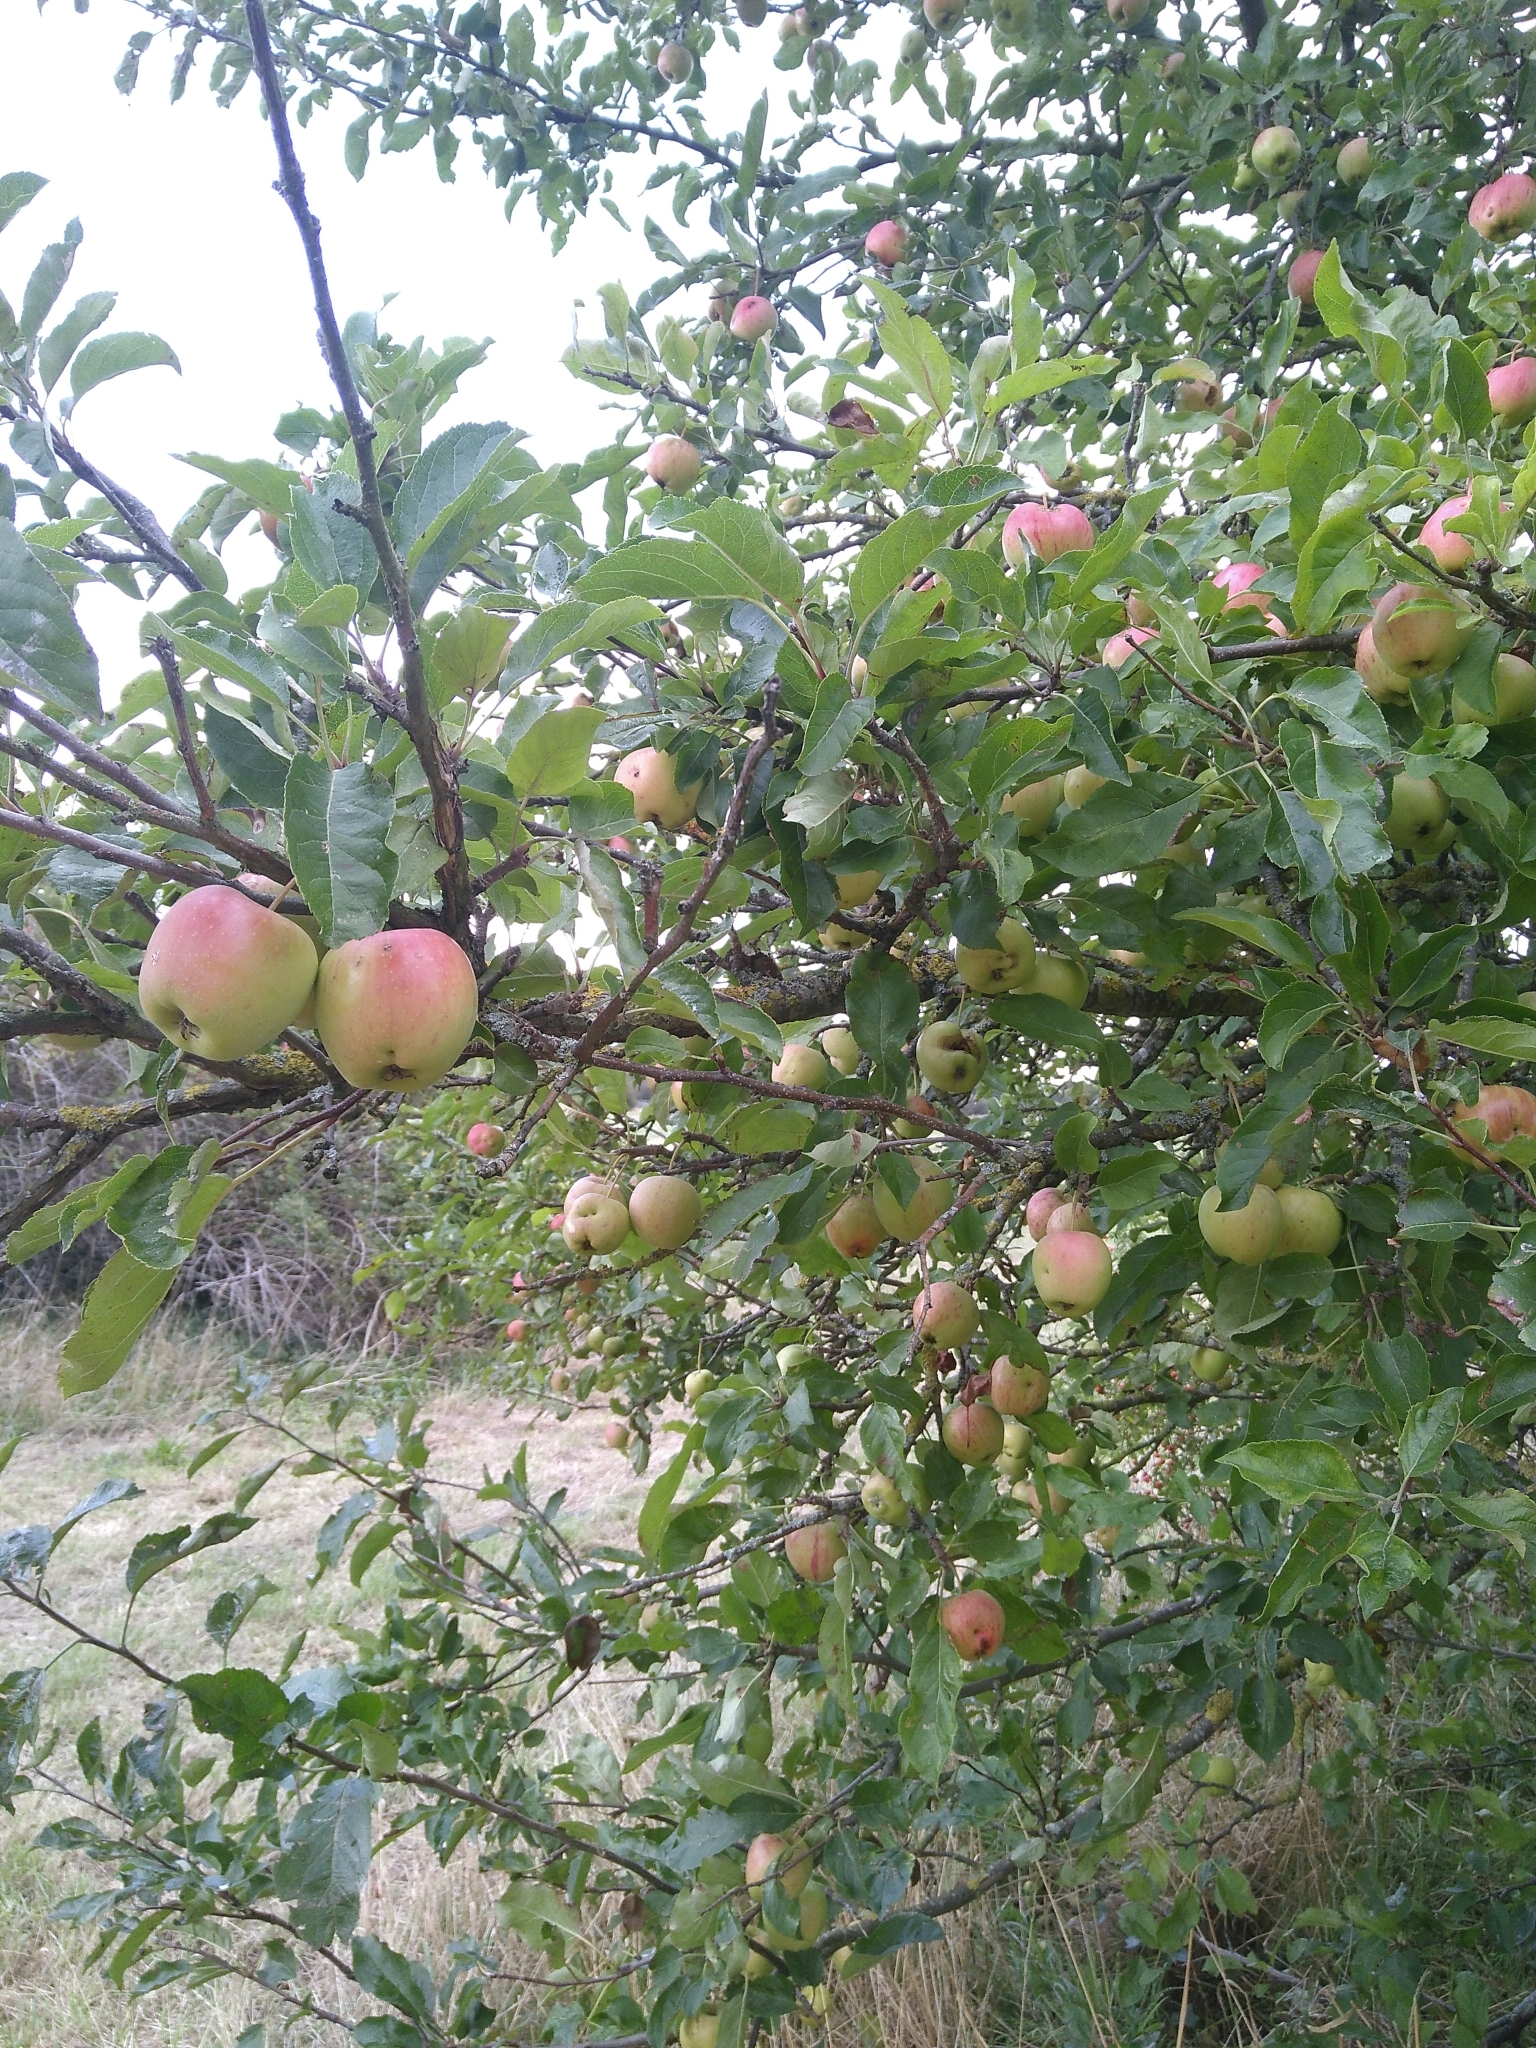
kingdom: Plantae
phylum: Tracheophyta
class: Magnoliopsida
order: Rosales
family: Rosaceae
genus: Malus
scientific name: Malus domestica
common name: Apple
